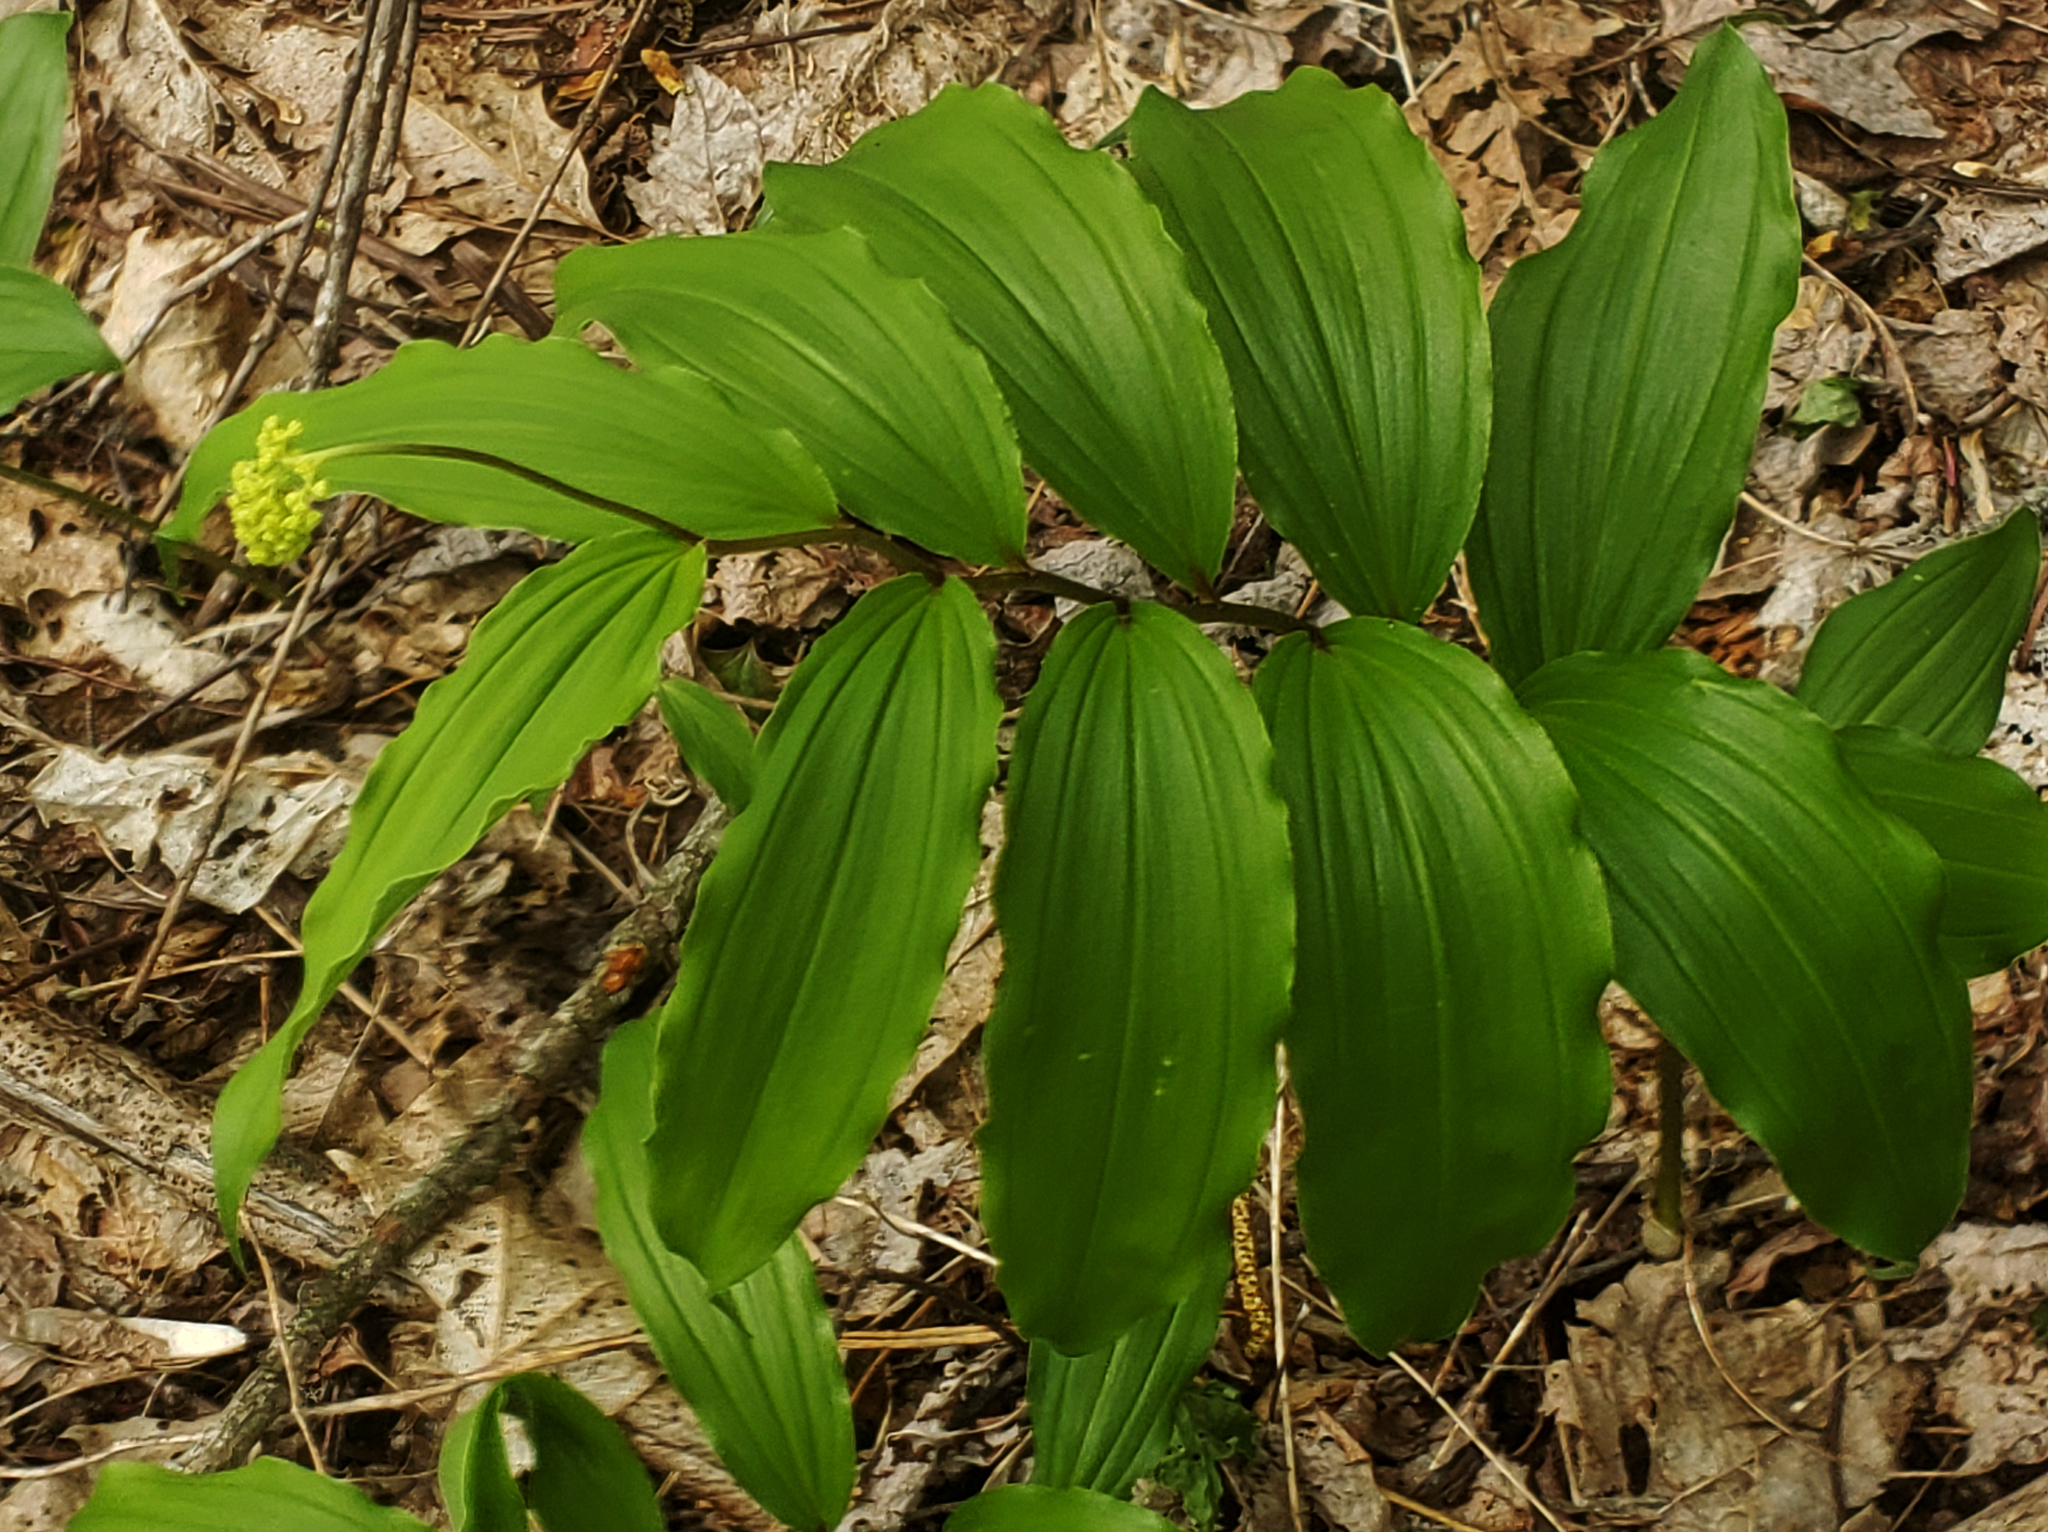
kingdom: Plantae
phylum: Tracheophyta
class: Liliopsida
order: Asparagales
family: Asparagaceae
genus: Maianthemum
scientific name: Maianthemum racemosum
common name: False spikenard
